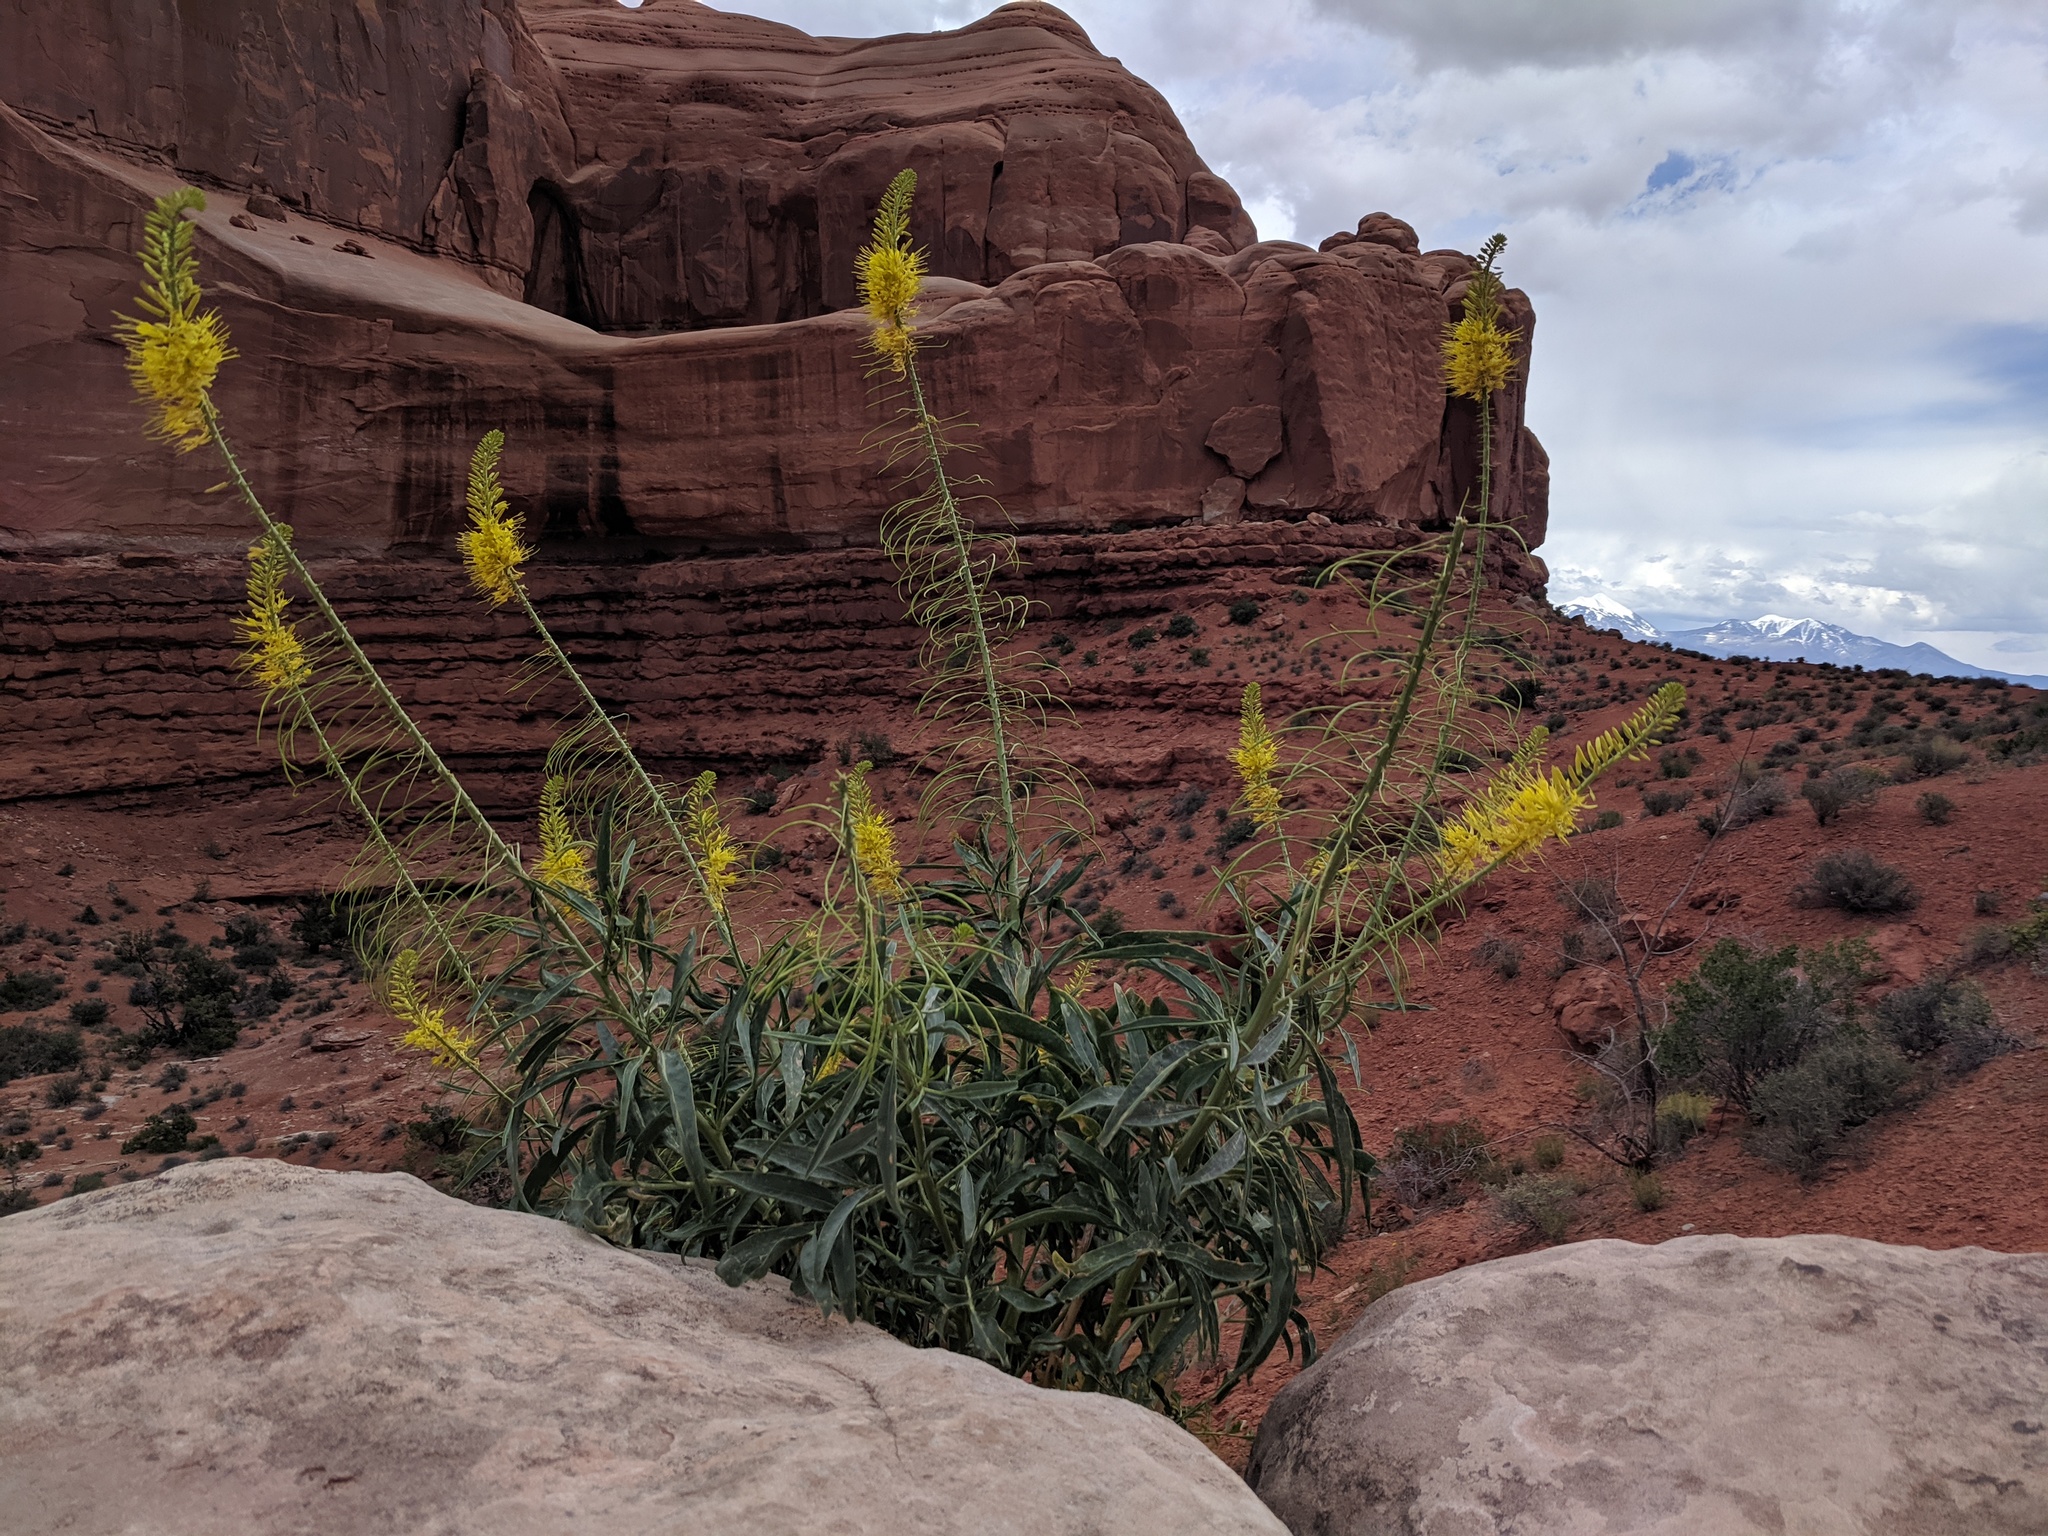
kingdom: Plantae
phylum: Tracheophyta
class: Magnoliopsida
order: Brassicales
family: Brassicaceae
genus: Stanleya
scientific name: Stanleya pinnata
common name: Prince's-plume
